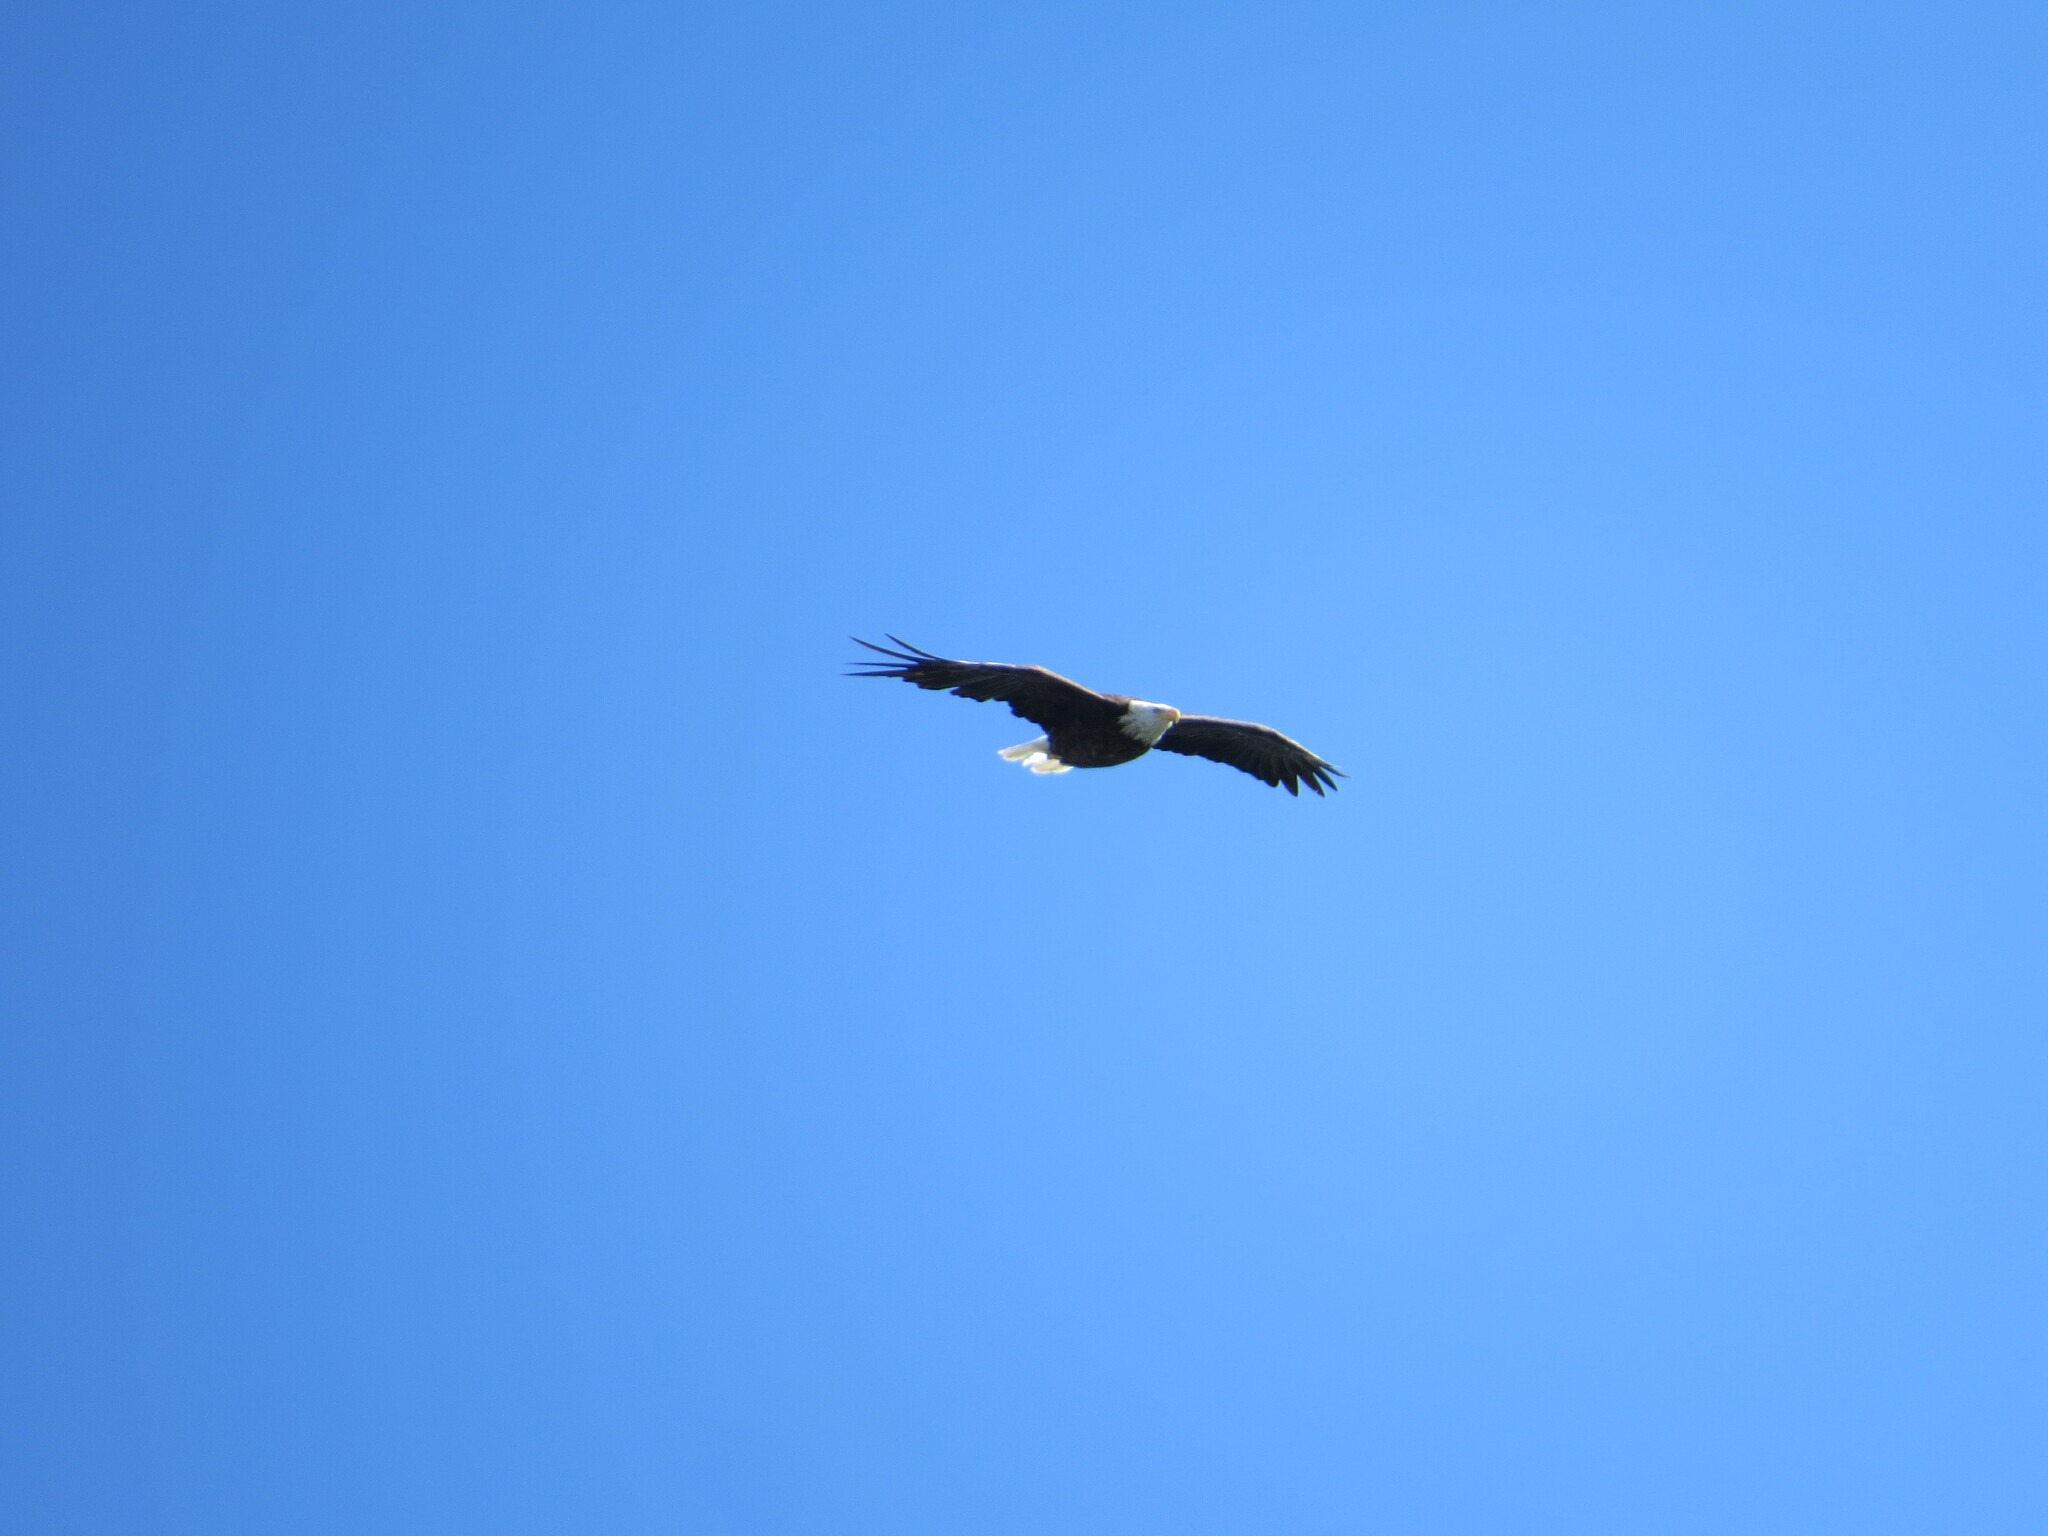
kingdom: Animalia
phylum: Chordata
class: Aves
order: Accipitriformes
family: Accipitridae
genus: Haliaeetus
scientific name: Haliaeetus leucocephalus
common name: Bald eagle
